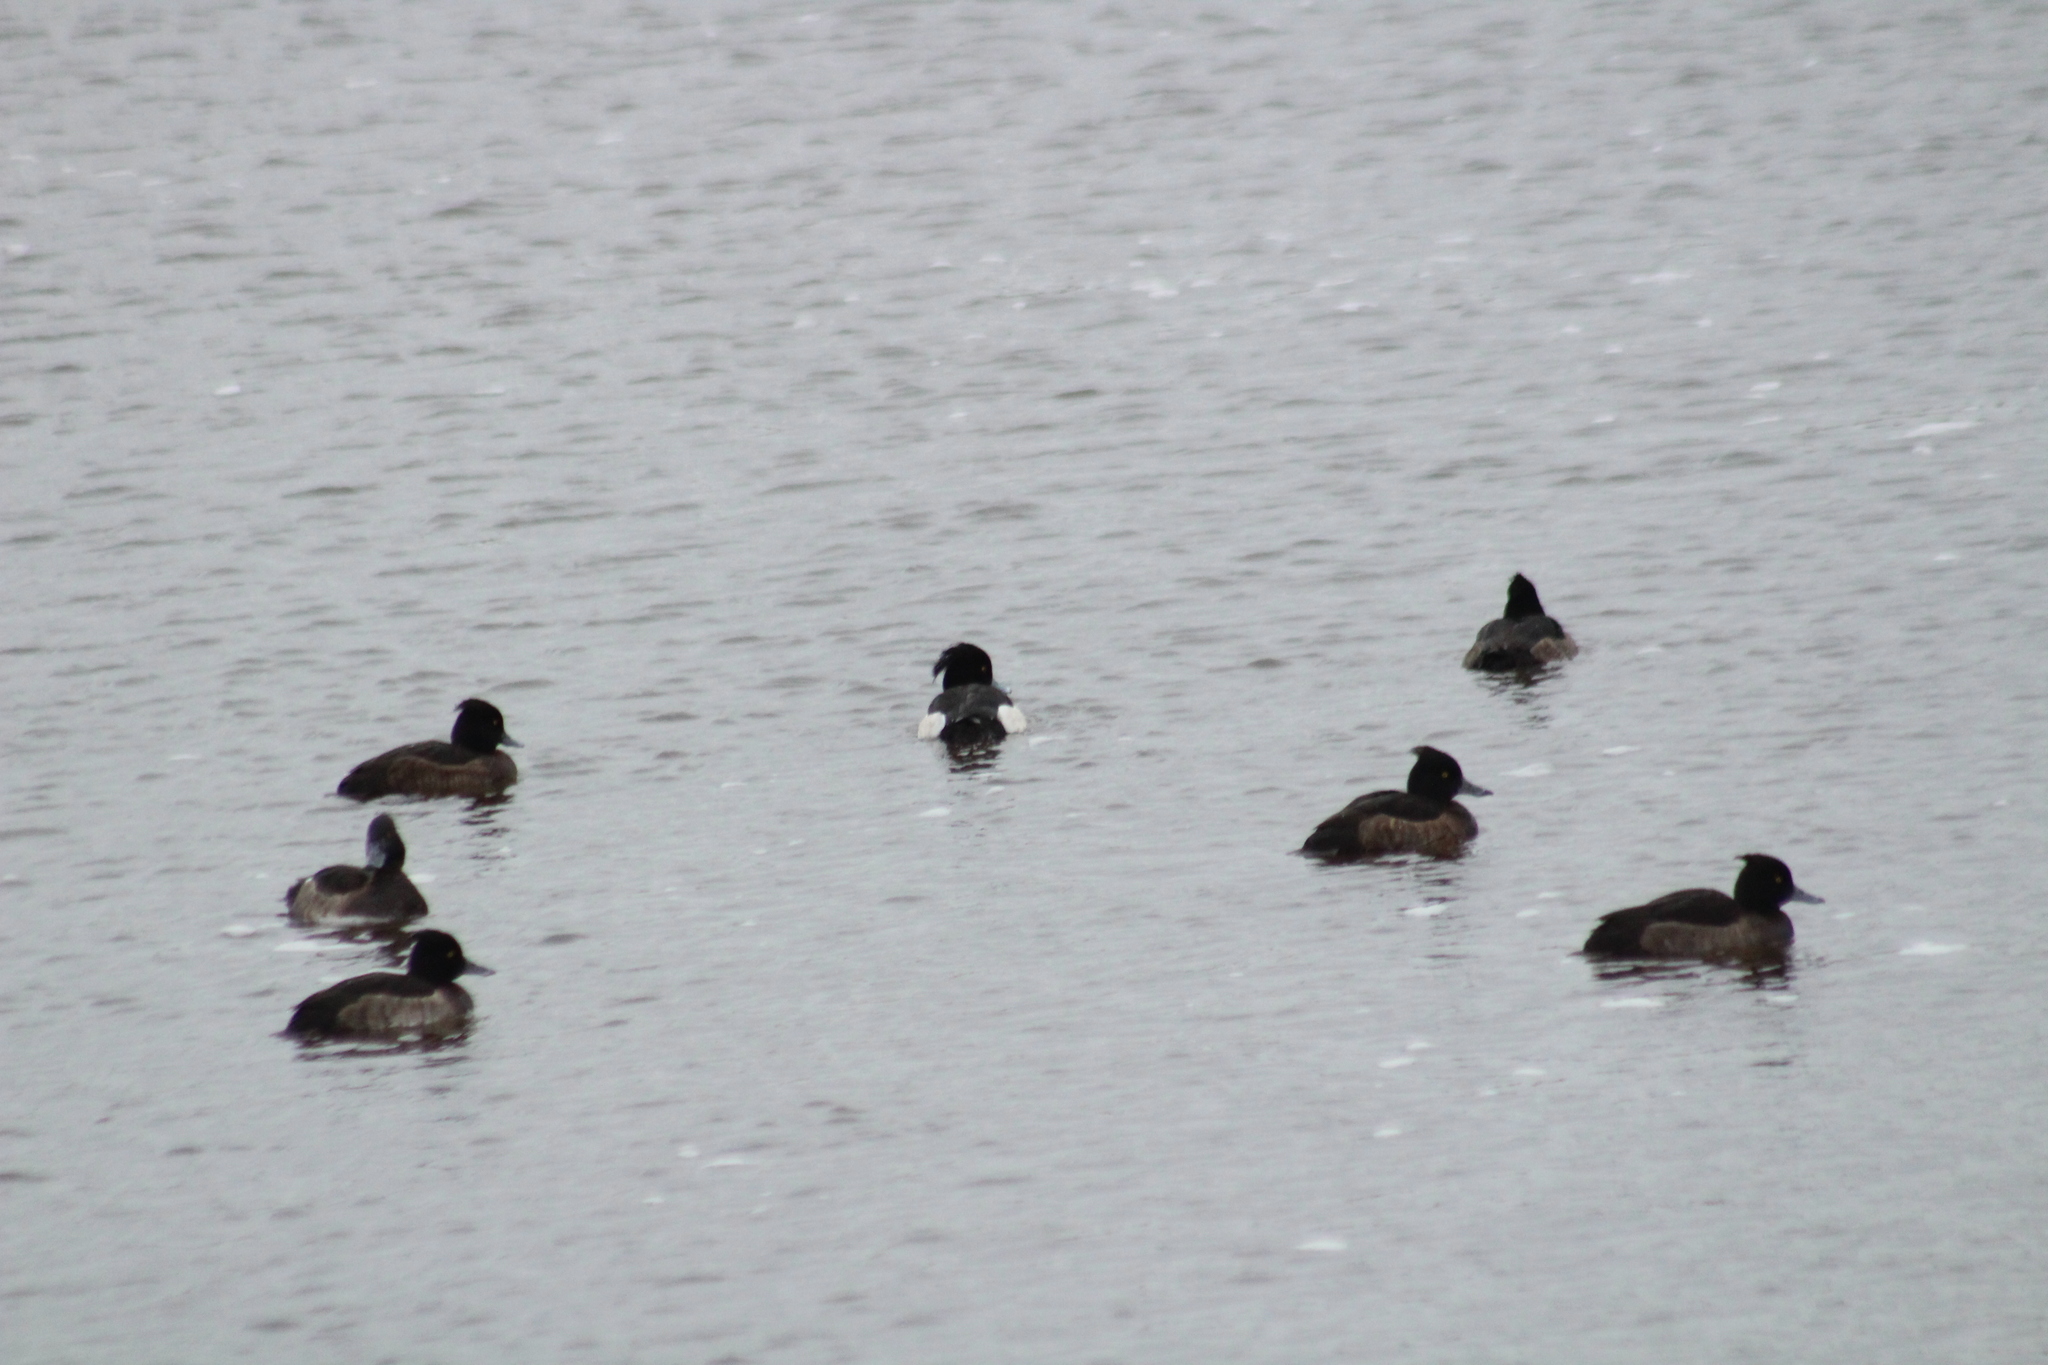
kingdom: Animalia
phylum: Chordata
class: Aves
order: Anseriformes
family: Anatidae
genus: Aythya
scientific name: Aythya fuligula
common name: Tufted duck
